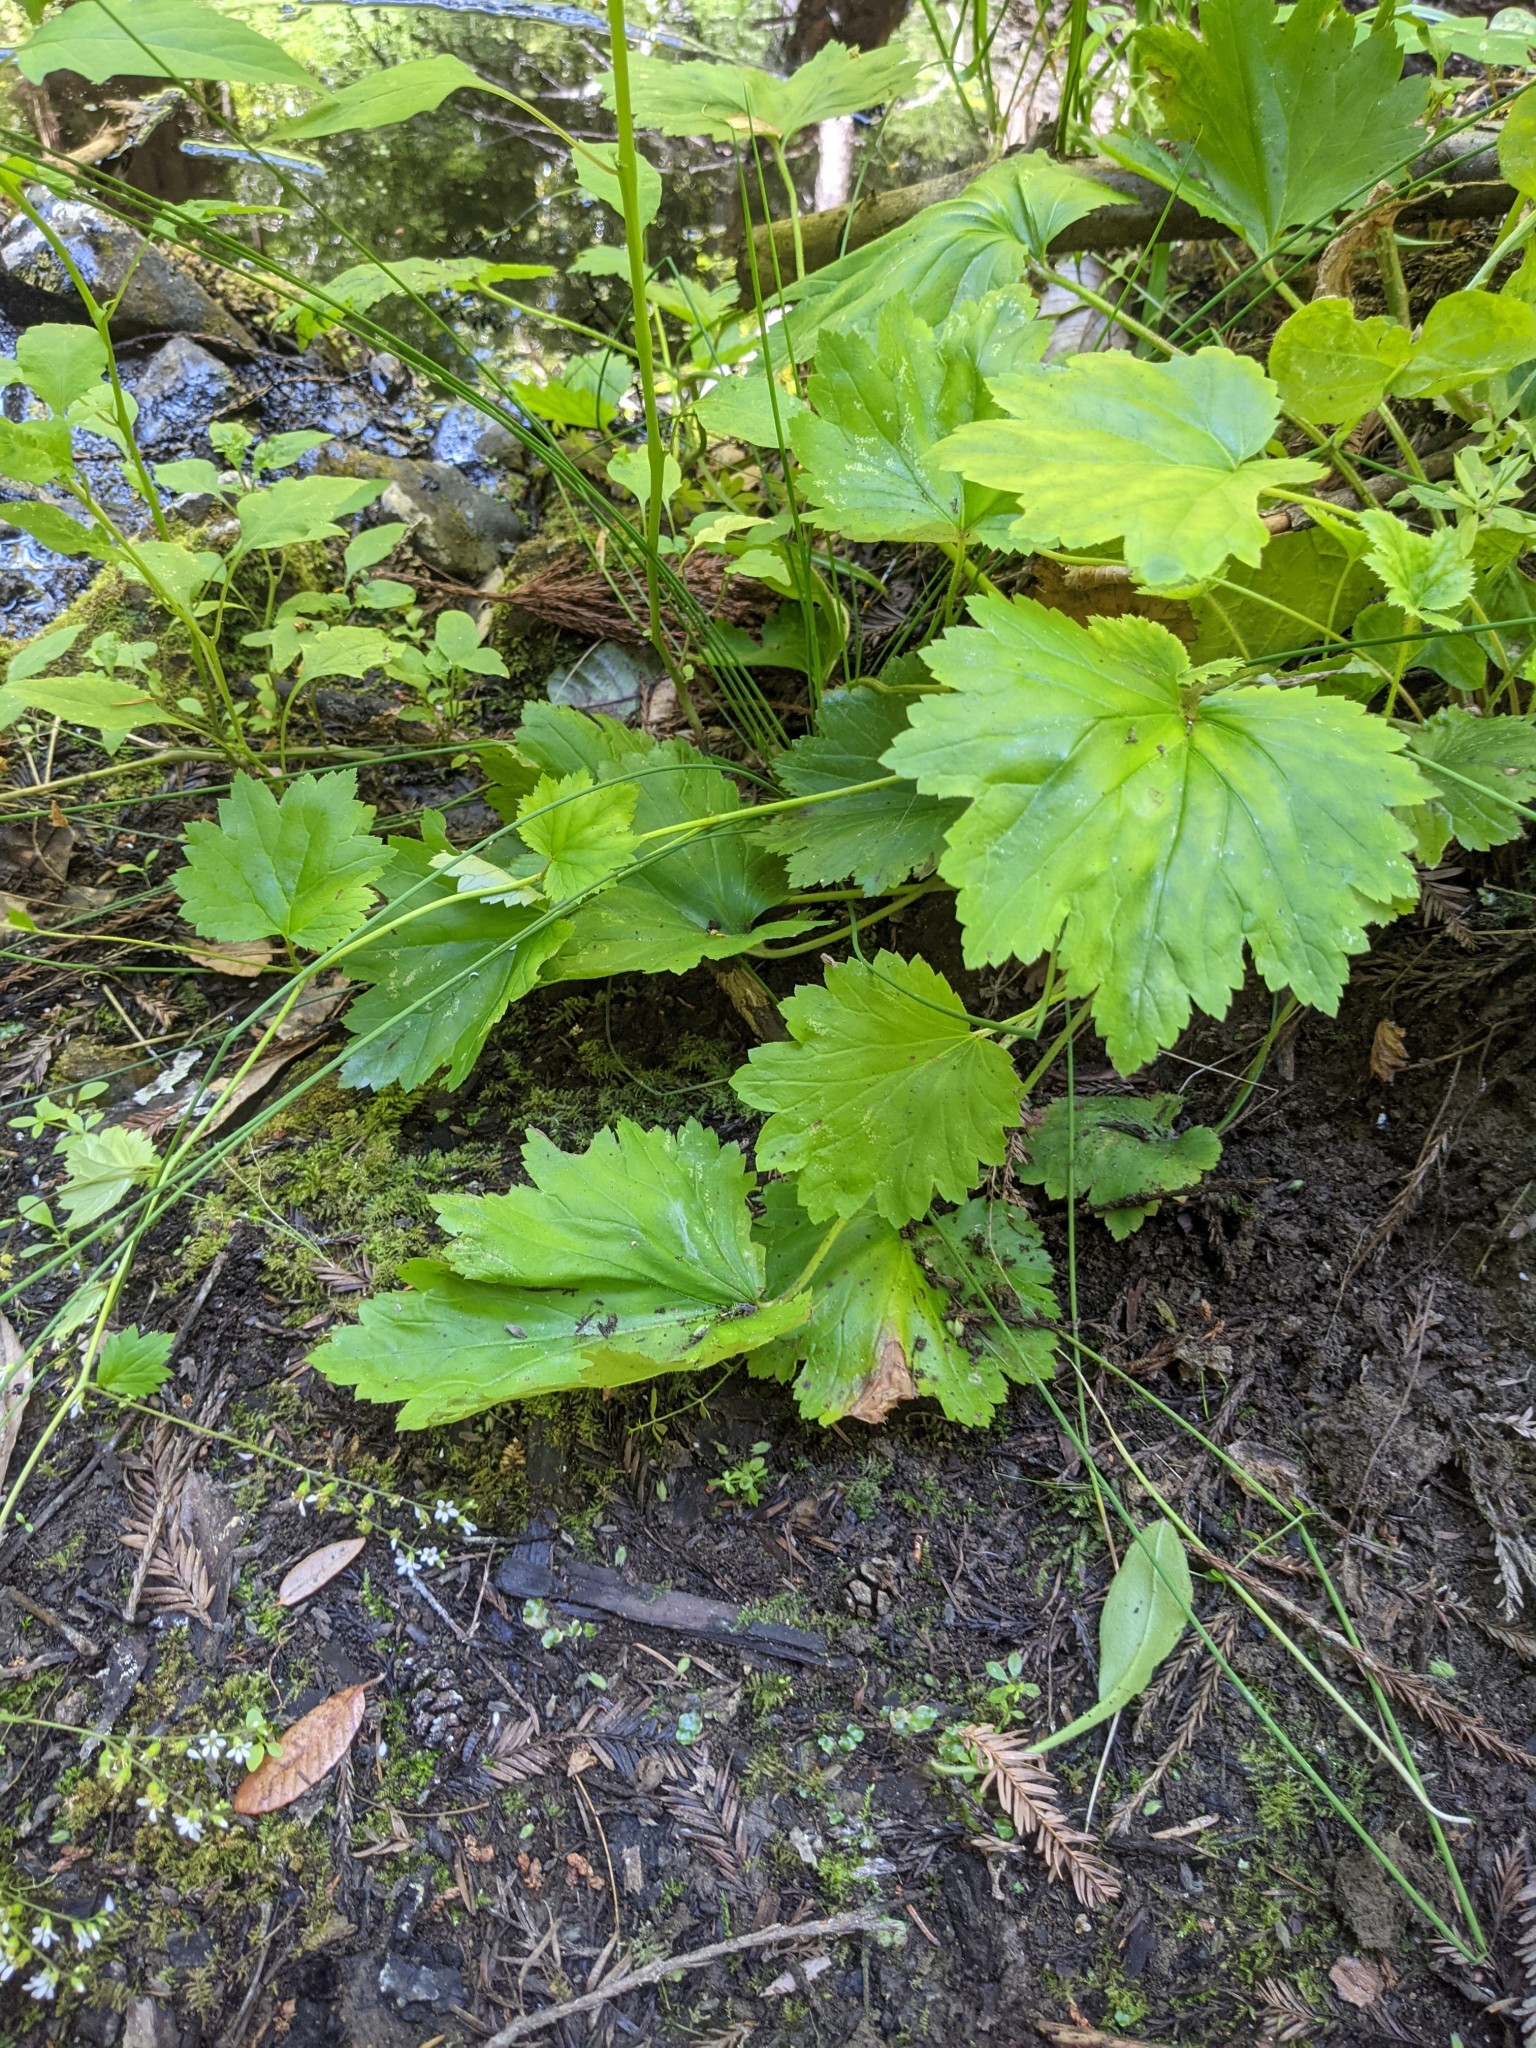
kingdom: Plantae
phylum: Tracheophyta
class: Magnoliopsida
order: Saxifragales
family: Saxifragaceae
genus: Boykinia
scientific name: Boykinia occidentalis
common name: Coast boykinia
